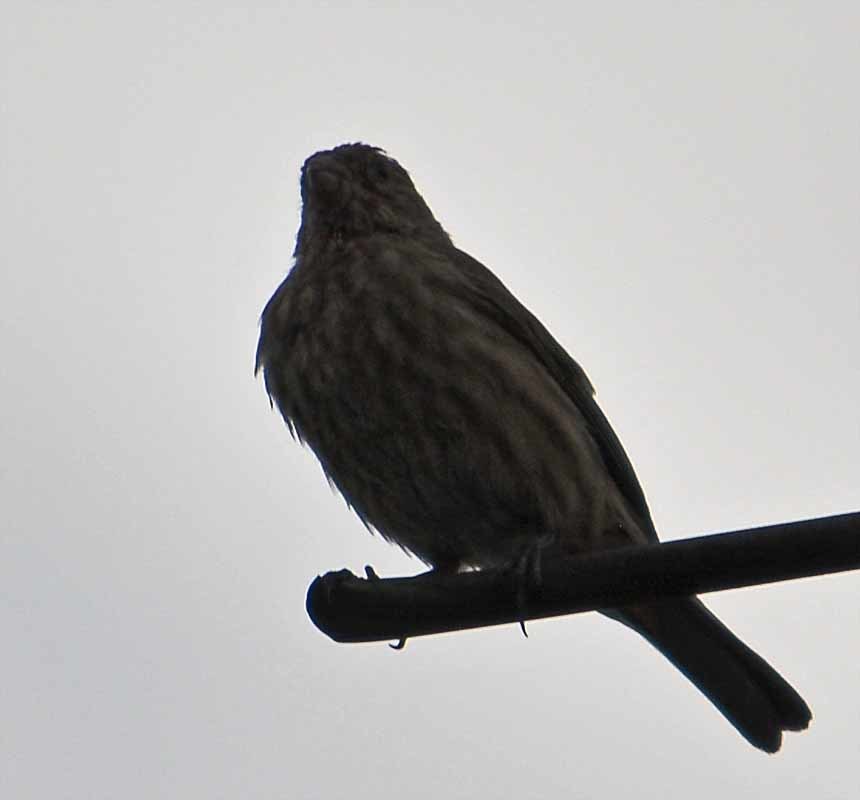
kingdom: Animalia
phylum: Chordata
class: Aves
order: Passeriformes
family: Fringillidae
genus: Haemorhous
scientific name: Haemorhous mexicanus
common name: House finch
